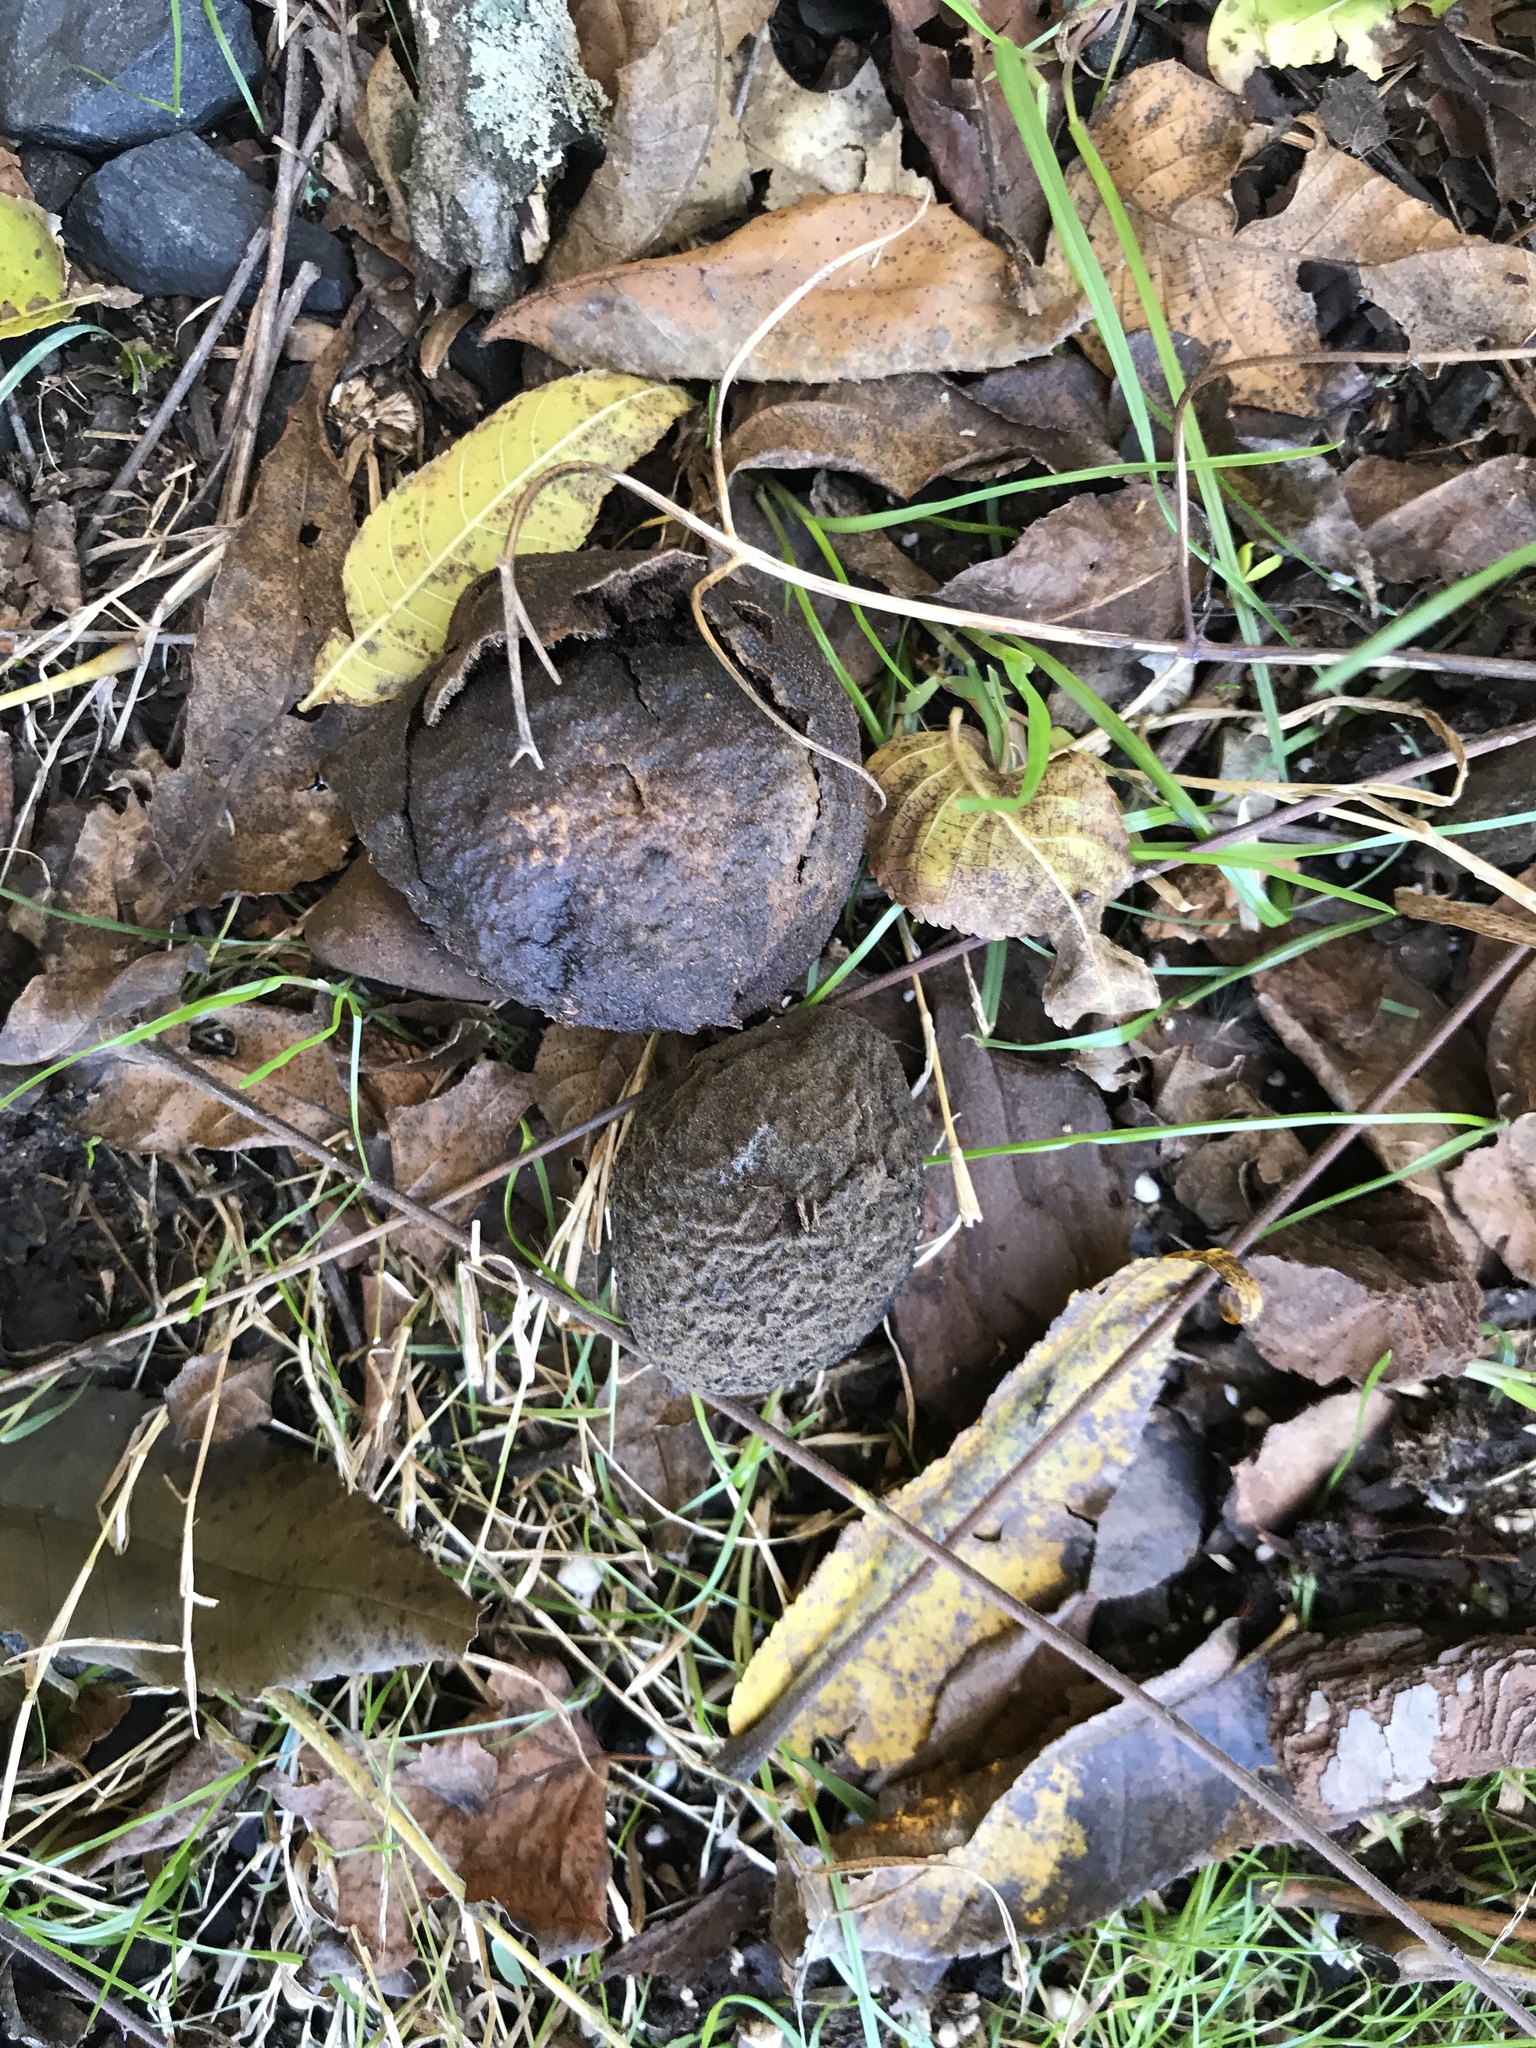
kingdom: Plantae
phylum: Tracheophyta
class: Magnoliopsida
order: Fagales
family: Juglandaceae
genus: Juglans
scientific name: Juglans nigra
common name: Black walnut
